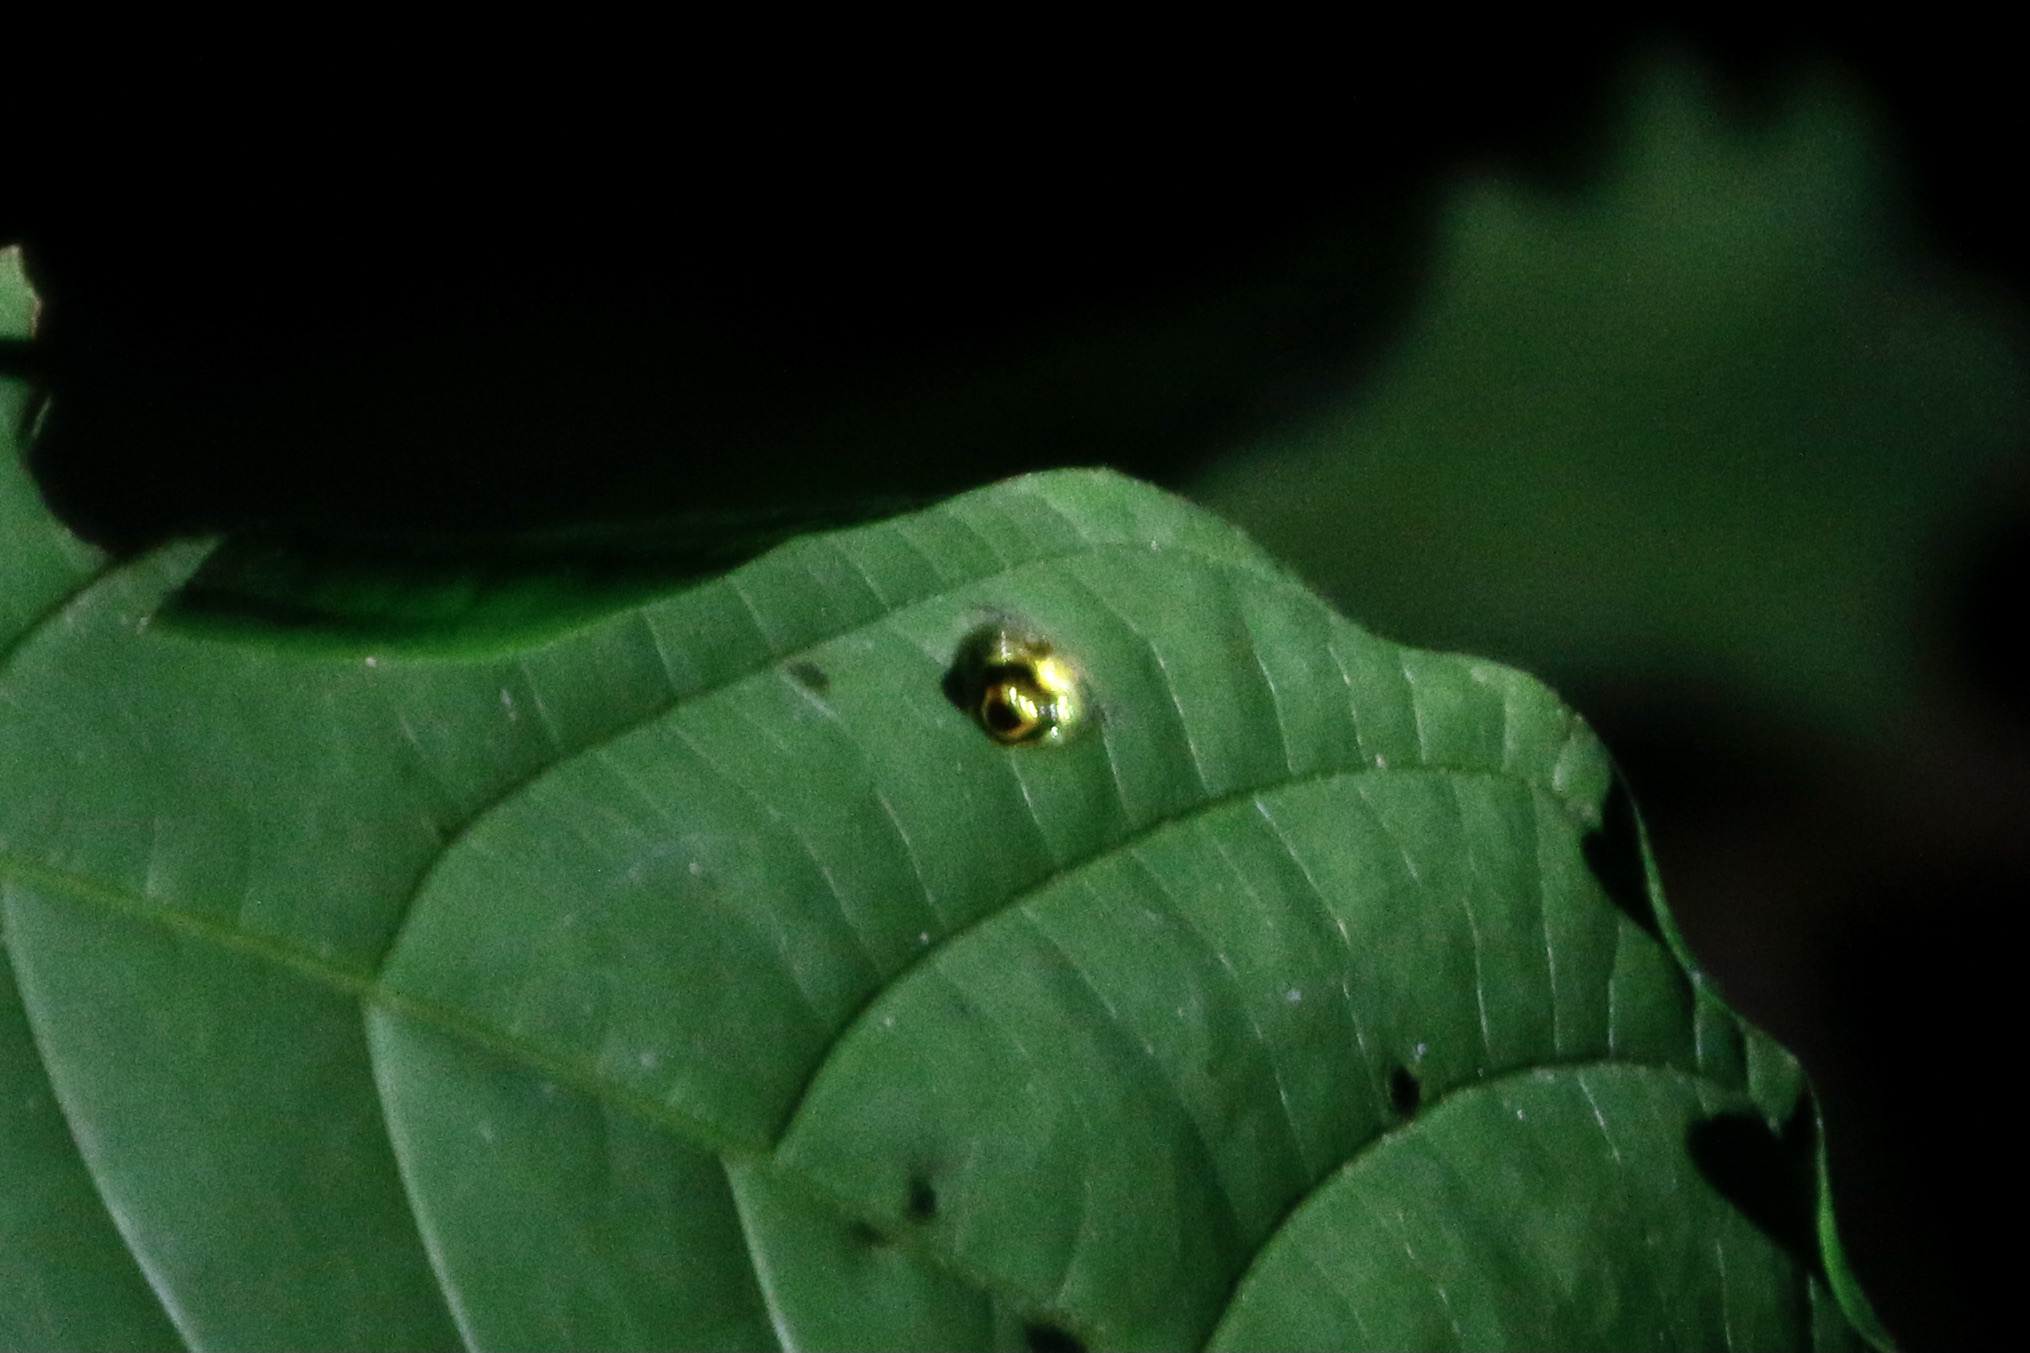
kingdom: Animalia
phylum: Arthropoda
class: Insecta
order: Coleoptera
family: Chrysomelidae
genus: Ischnocodia
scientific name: Ischnocodia annulus
